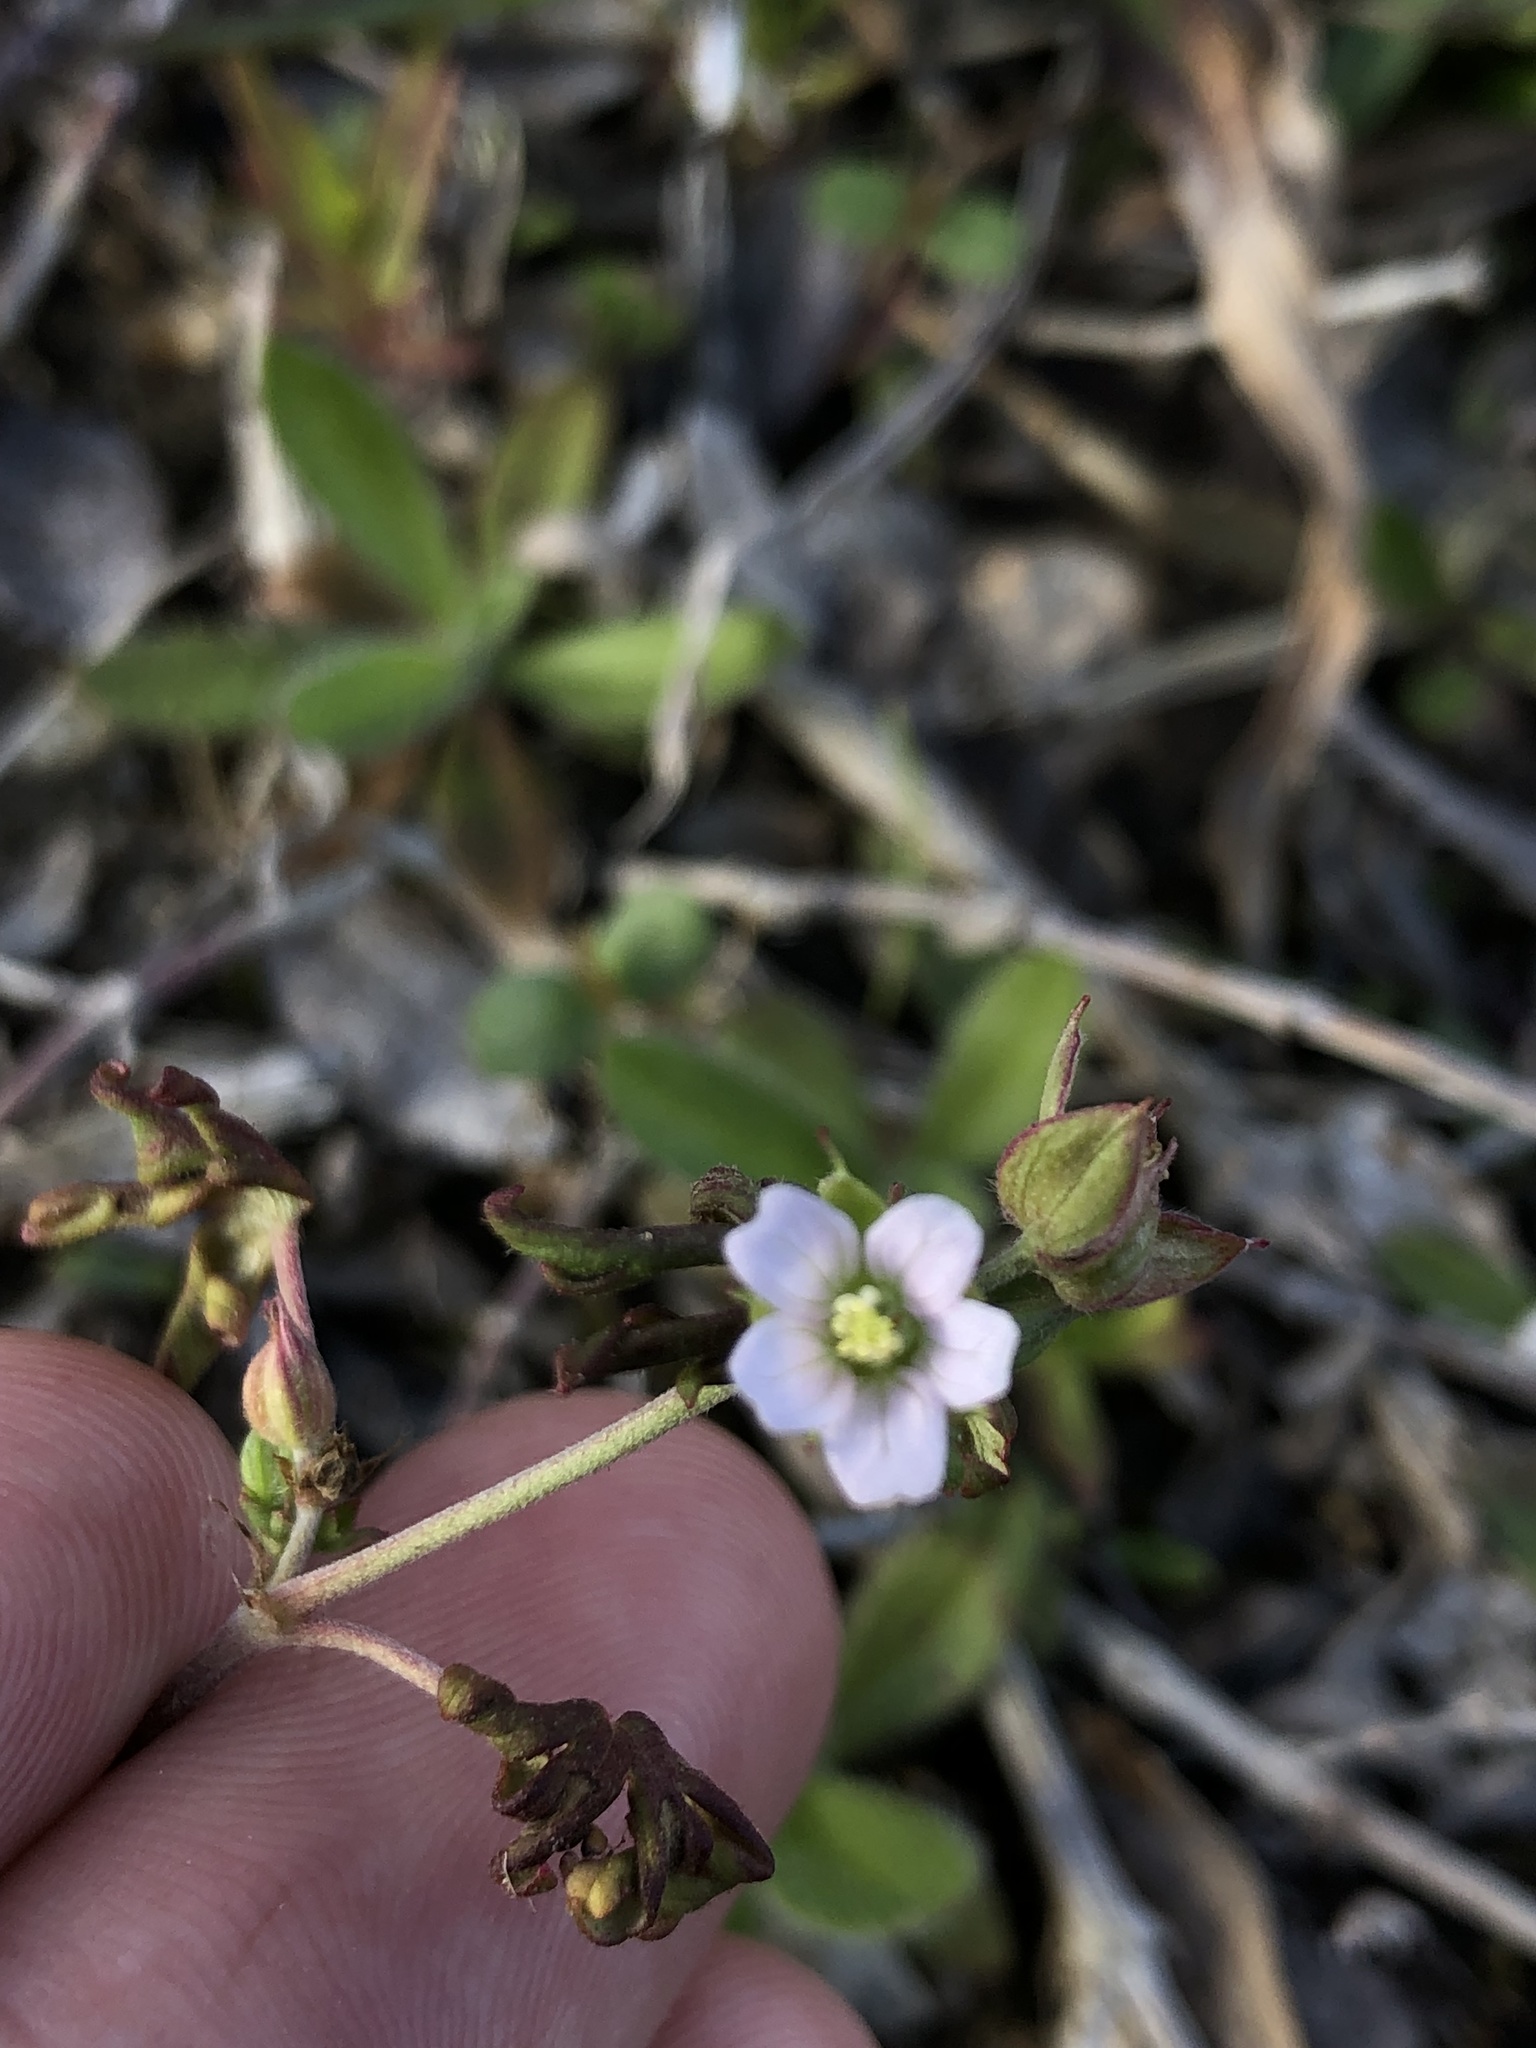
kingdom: Plantae
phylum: Tracheophyta
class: Magnoliopsida
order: Geraniales
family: Geraniaceae
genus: Geranium
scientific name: Geranium carolinianum
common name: Carolina crane's-bill
